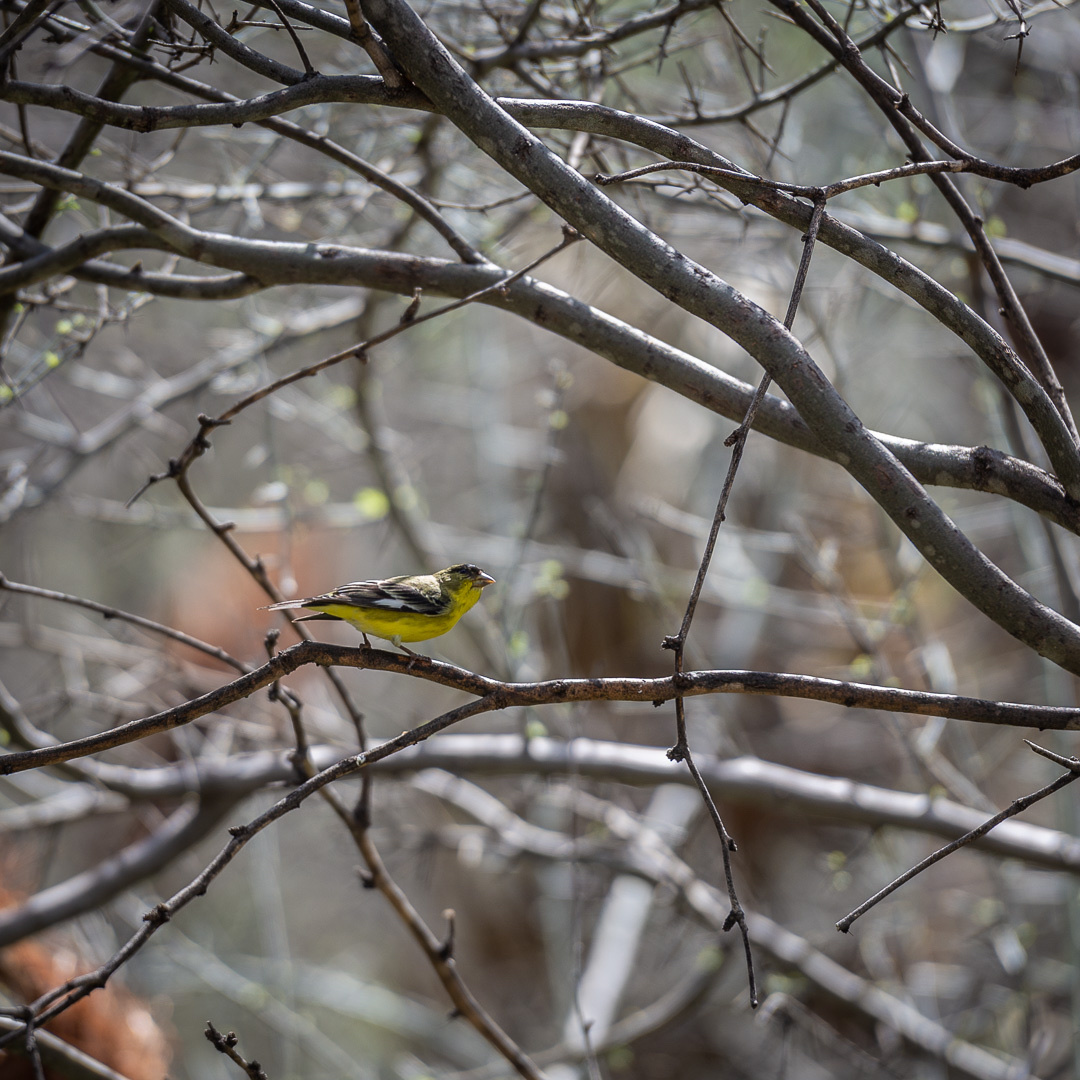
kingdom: Animalia
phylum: Chordata
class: Aves
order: Passeriformes
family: Fringillidae
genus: Spinus
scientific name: Spinus psaltria
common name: Lesser goldfinch
